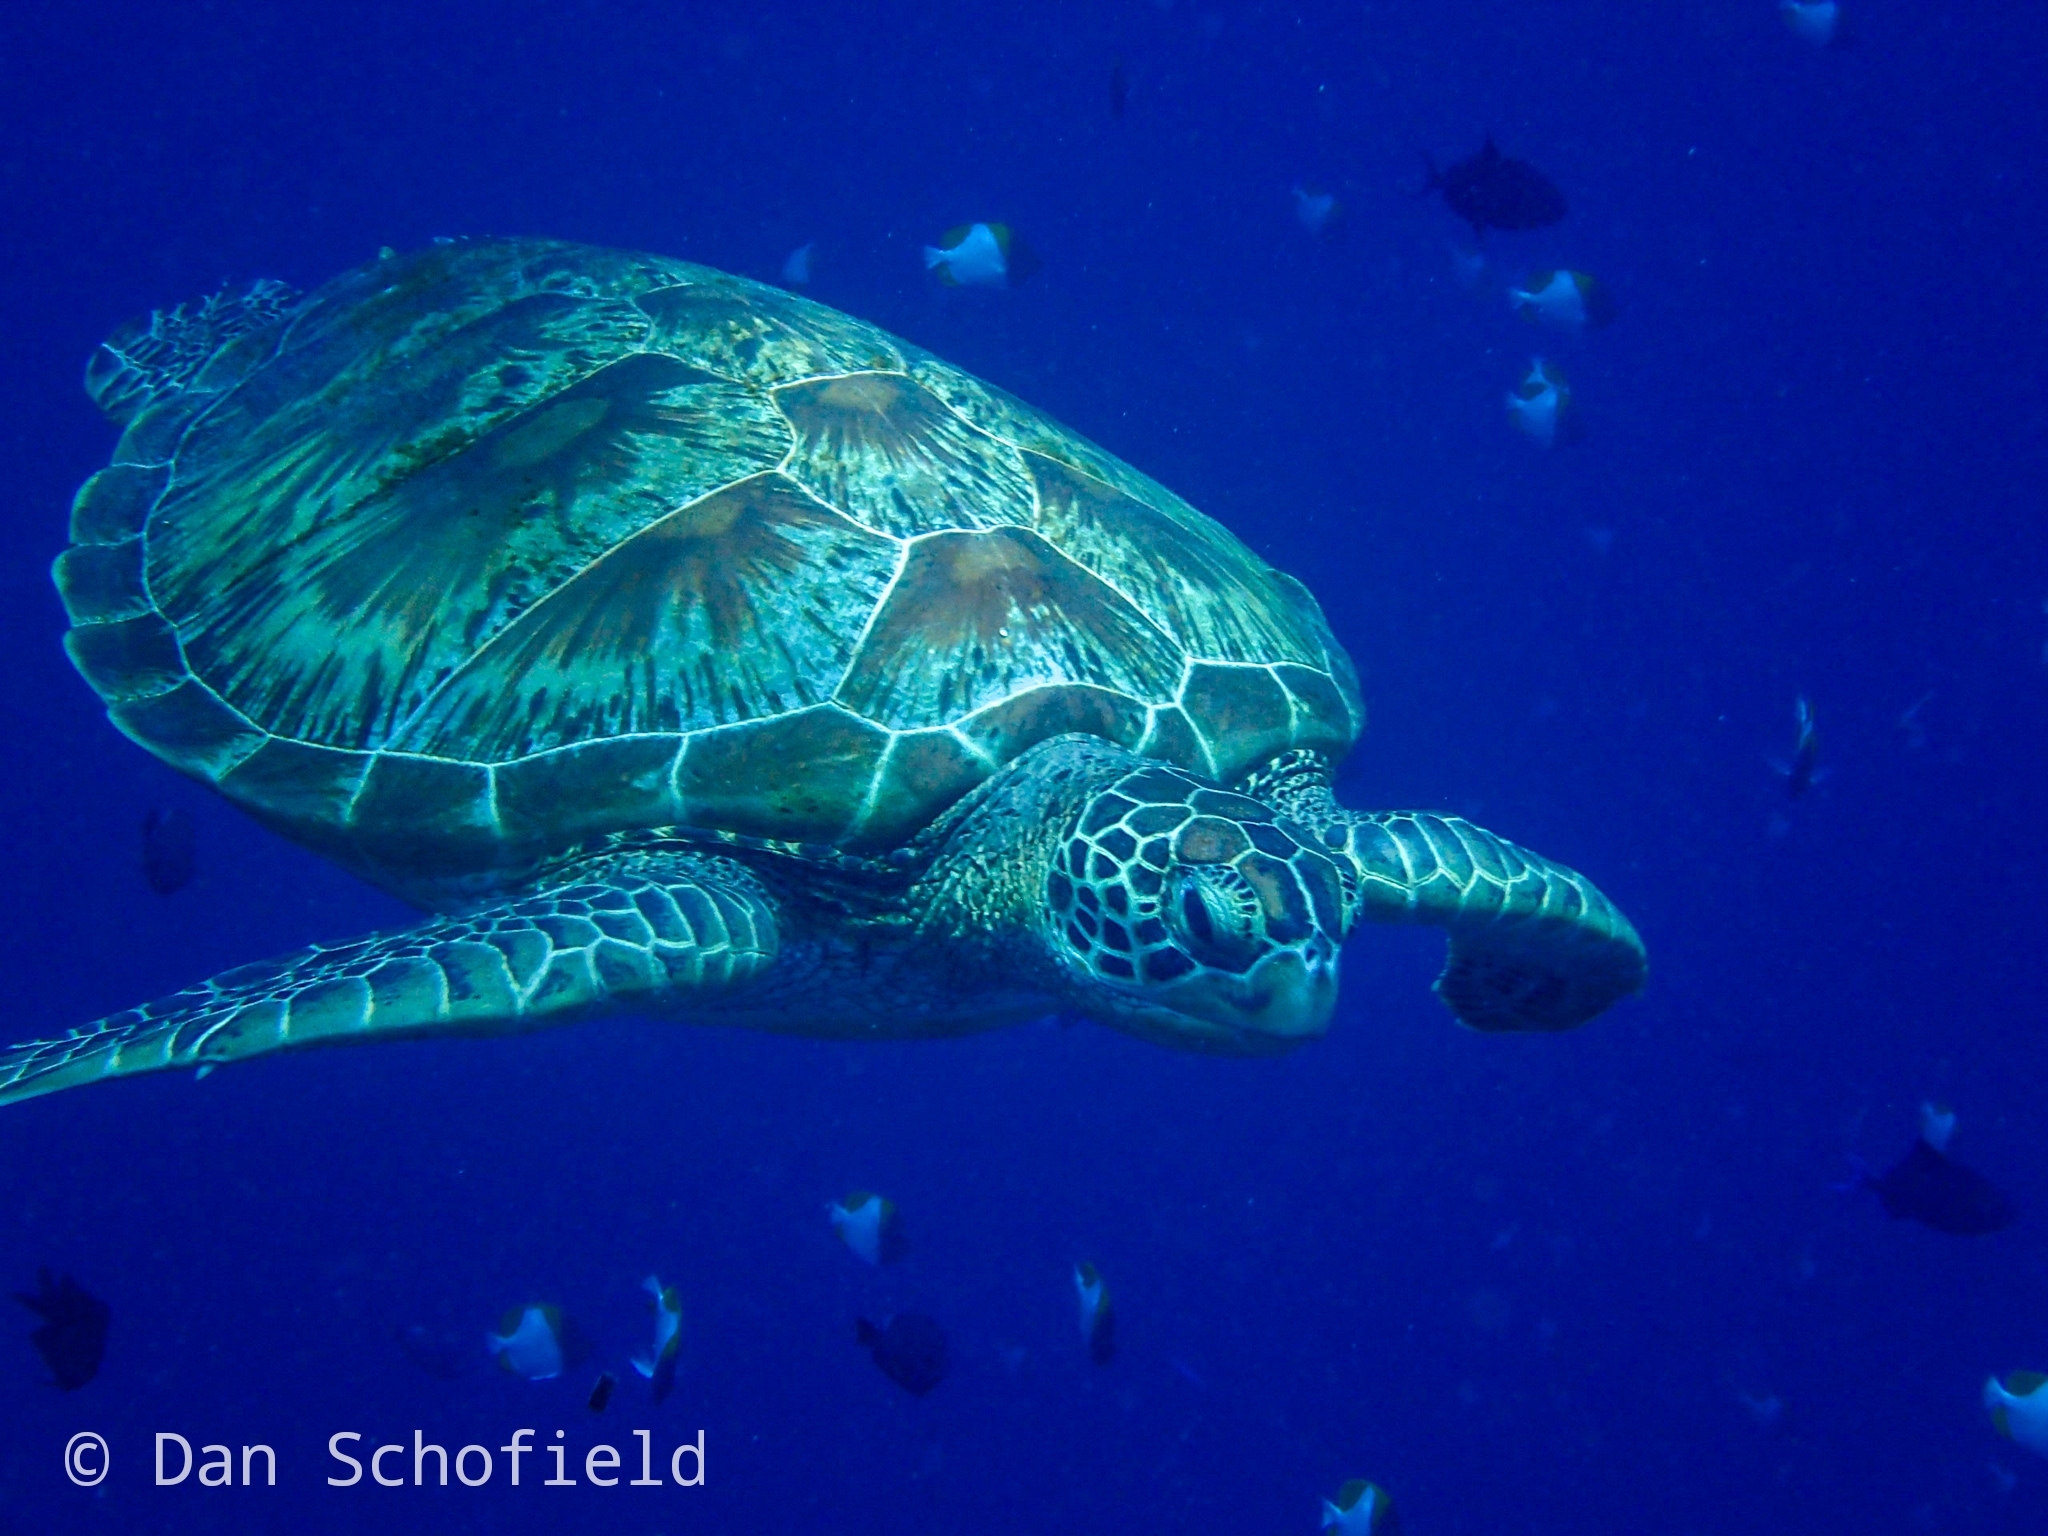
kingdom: Animalia
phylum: Chordata
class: Testudines
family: Cheloniidae
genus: Chelonia
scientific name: Chelonia mydas
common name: Green turtle
